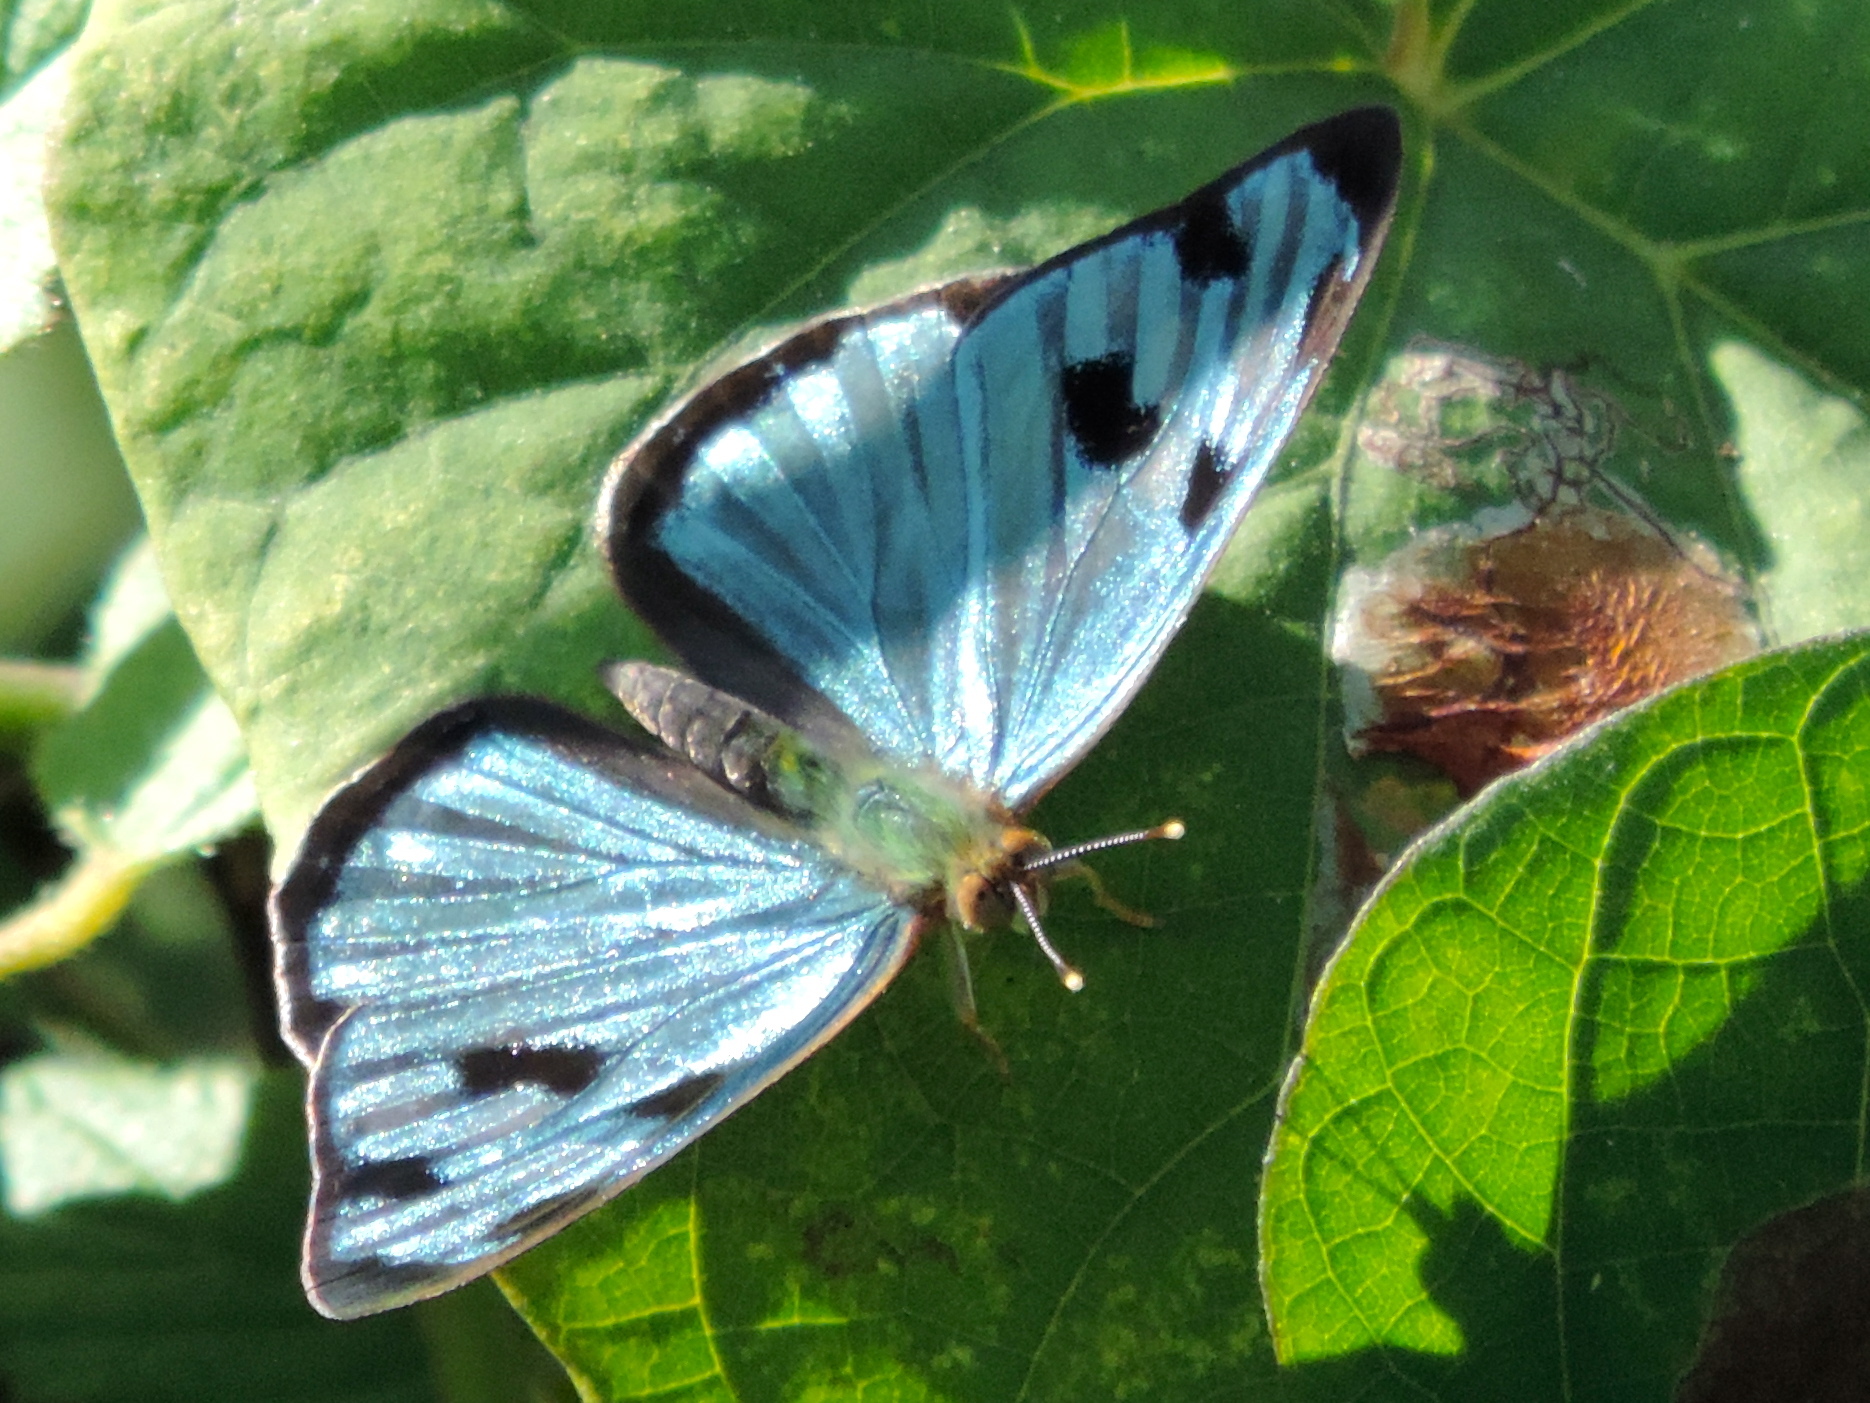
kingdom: Animalia
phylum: Arthropoda
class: Insecta
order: Lepidoptera
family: Nymphalidae
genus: Dynamine
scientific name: Dynamine mylitta
